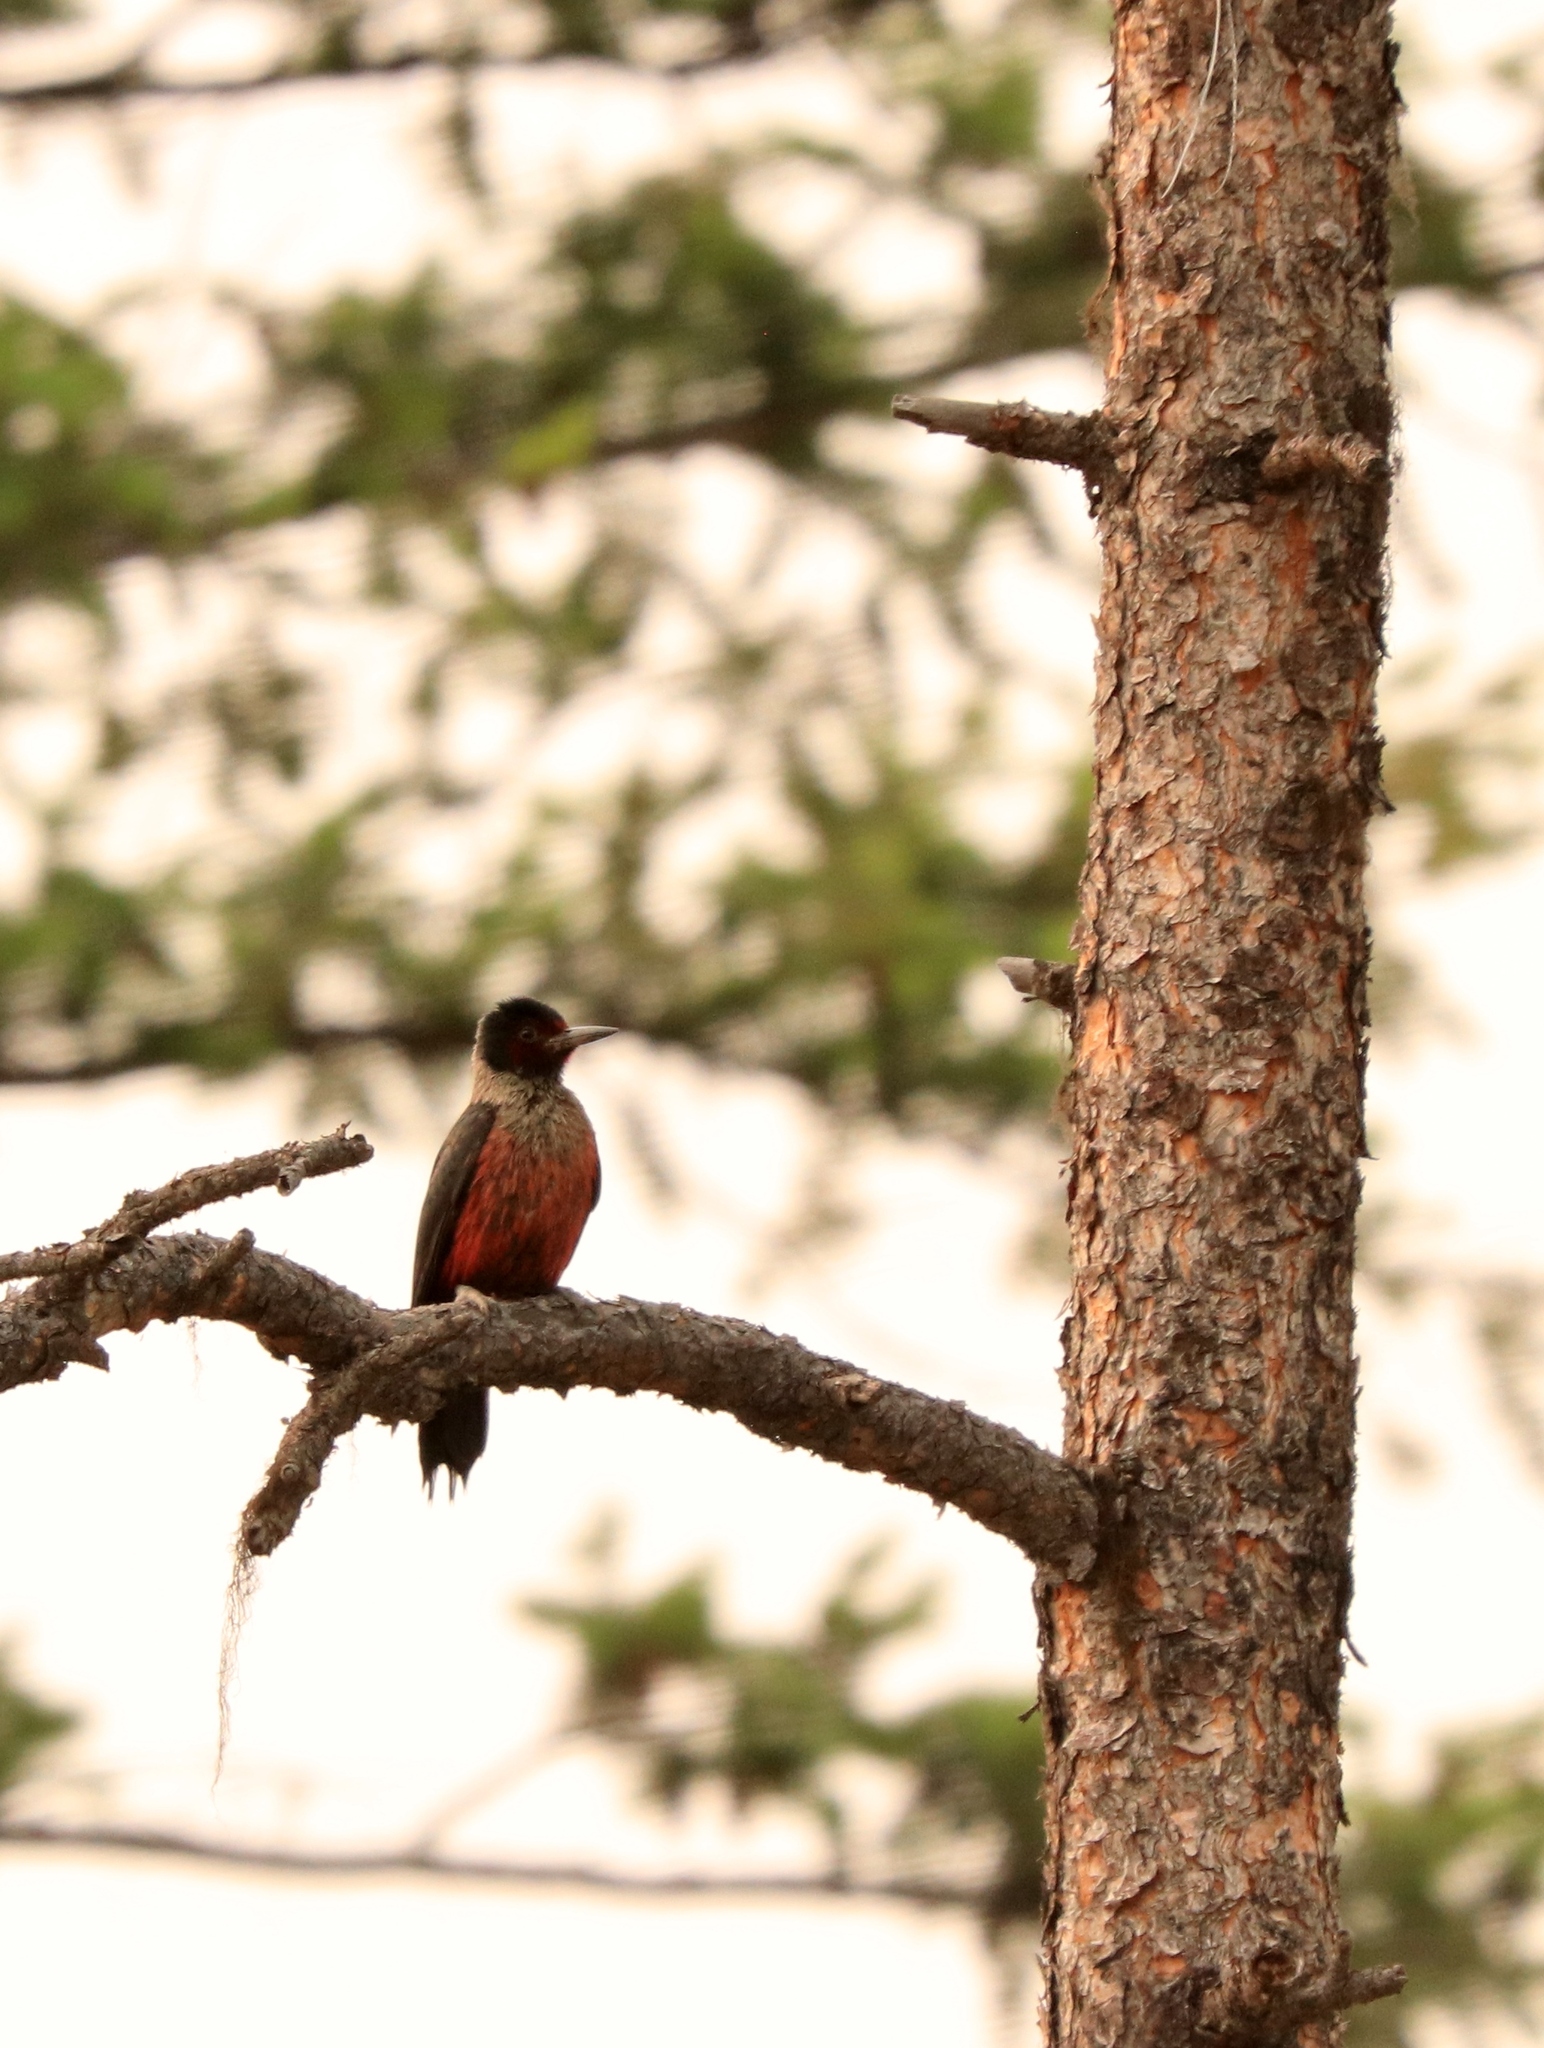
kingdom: Animalia
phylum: Chordata
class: Aves
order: Piciformes
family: Picidae
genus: Melanerpes
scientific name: Melanerpes lewis
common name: Lewis's woodpecker
